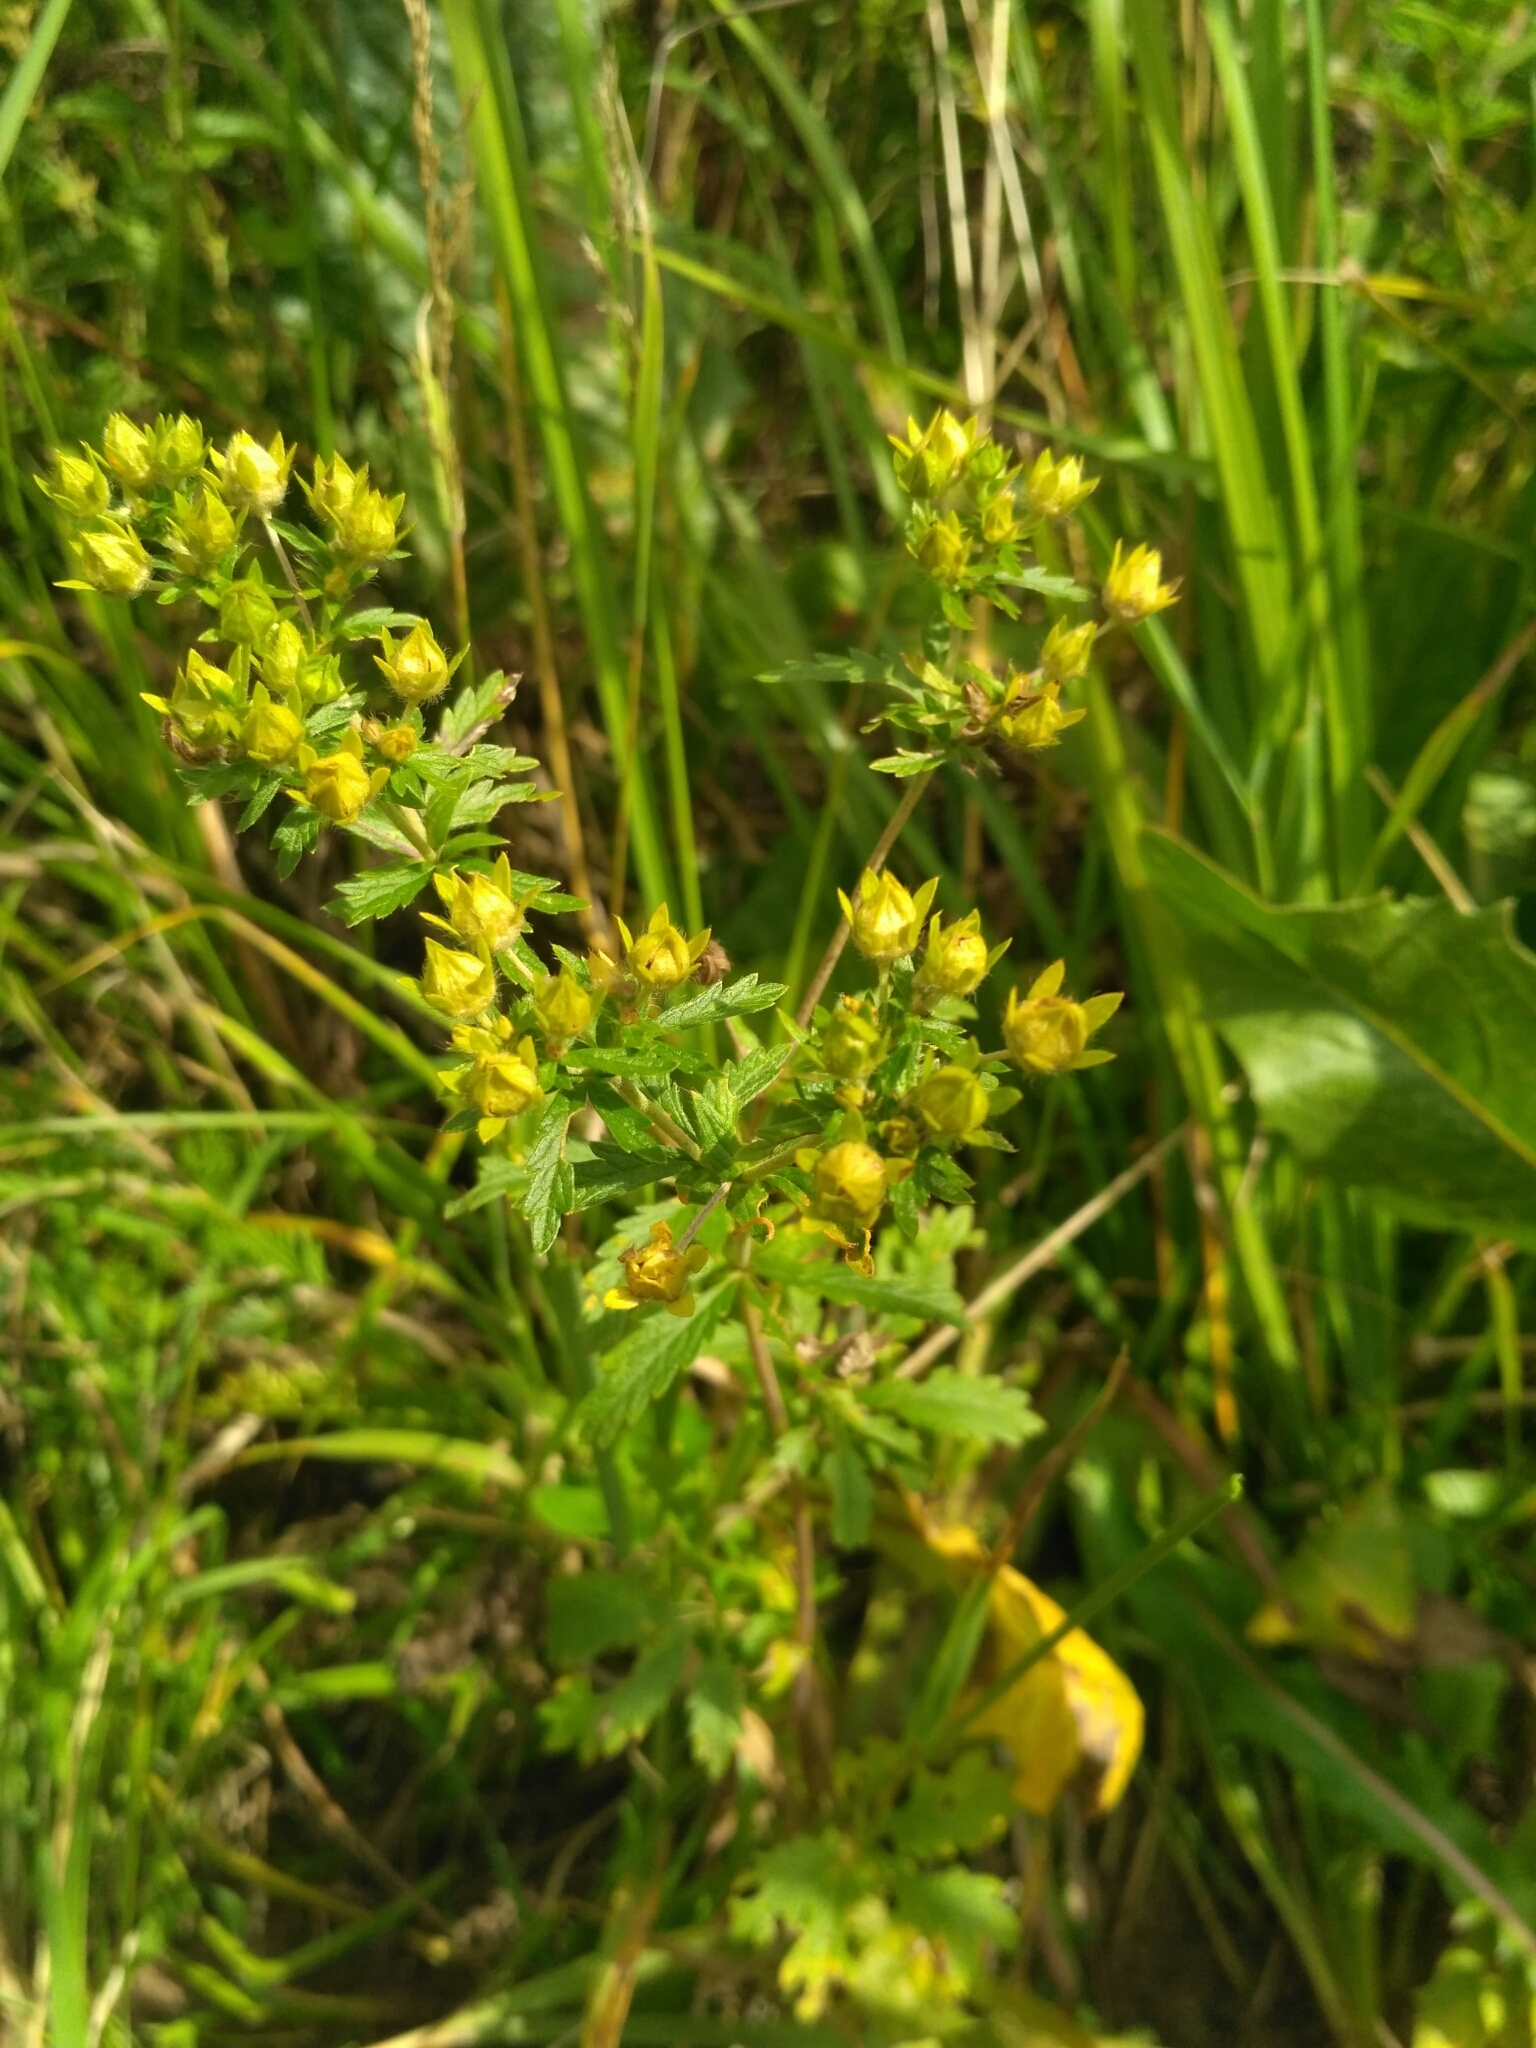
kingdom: Plantae
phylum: Tracheophyta
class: Magnoliopsida
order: Rosales
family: Rosaceae
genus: Potentilla
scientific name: Potentilla intermedia
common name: Downy cinquefoil
